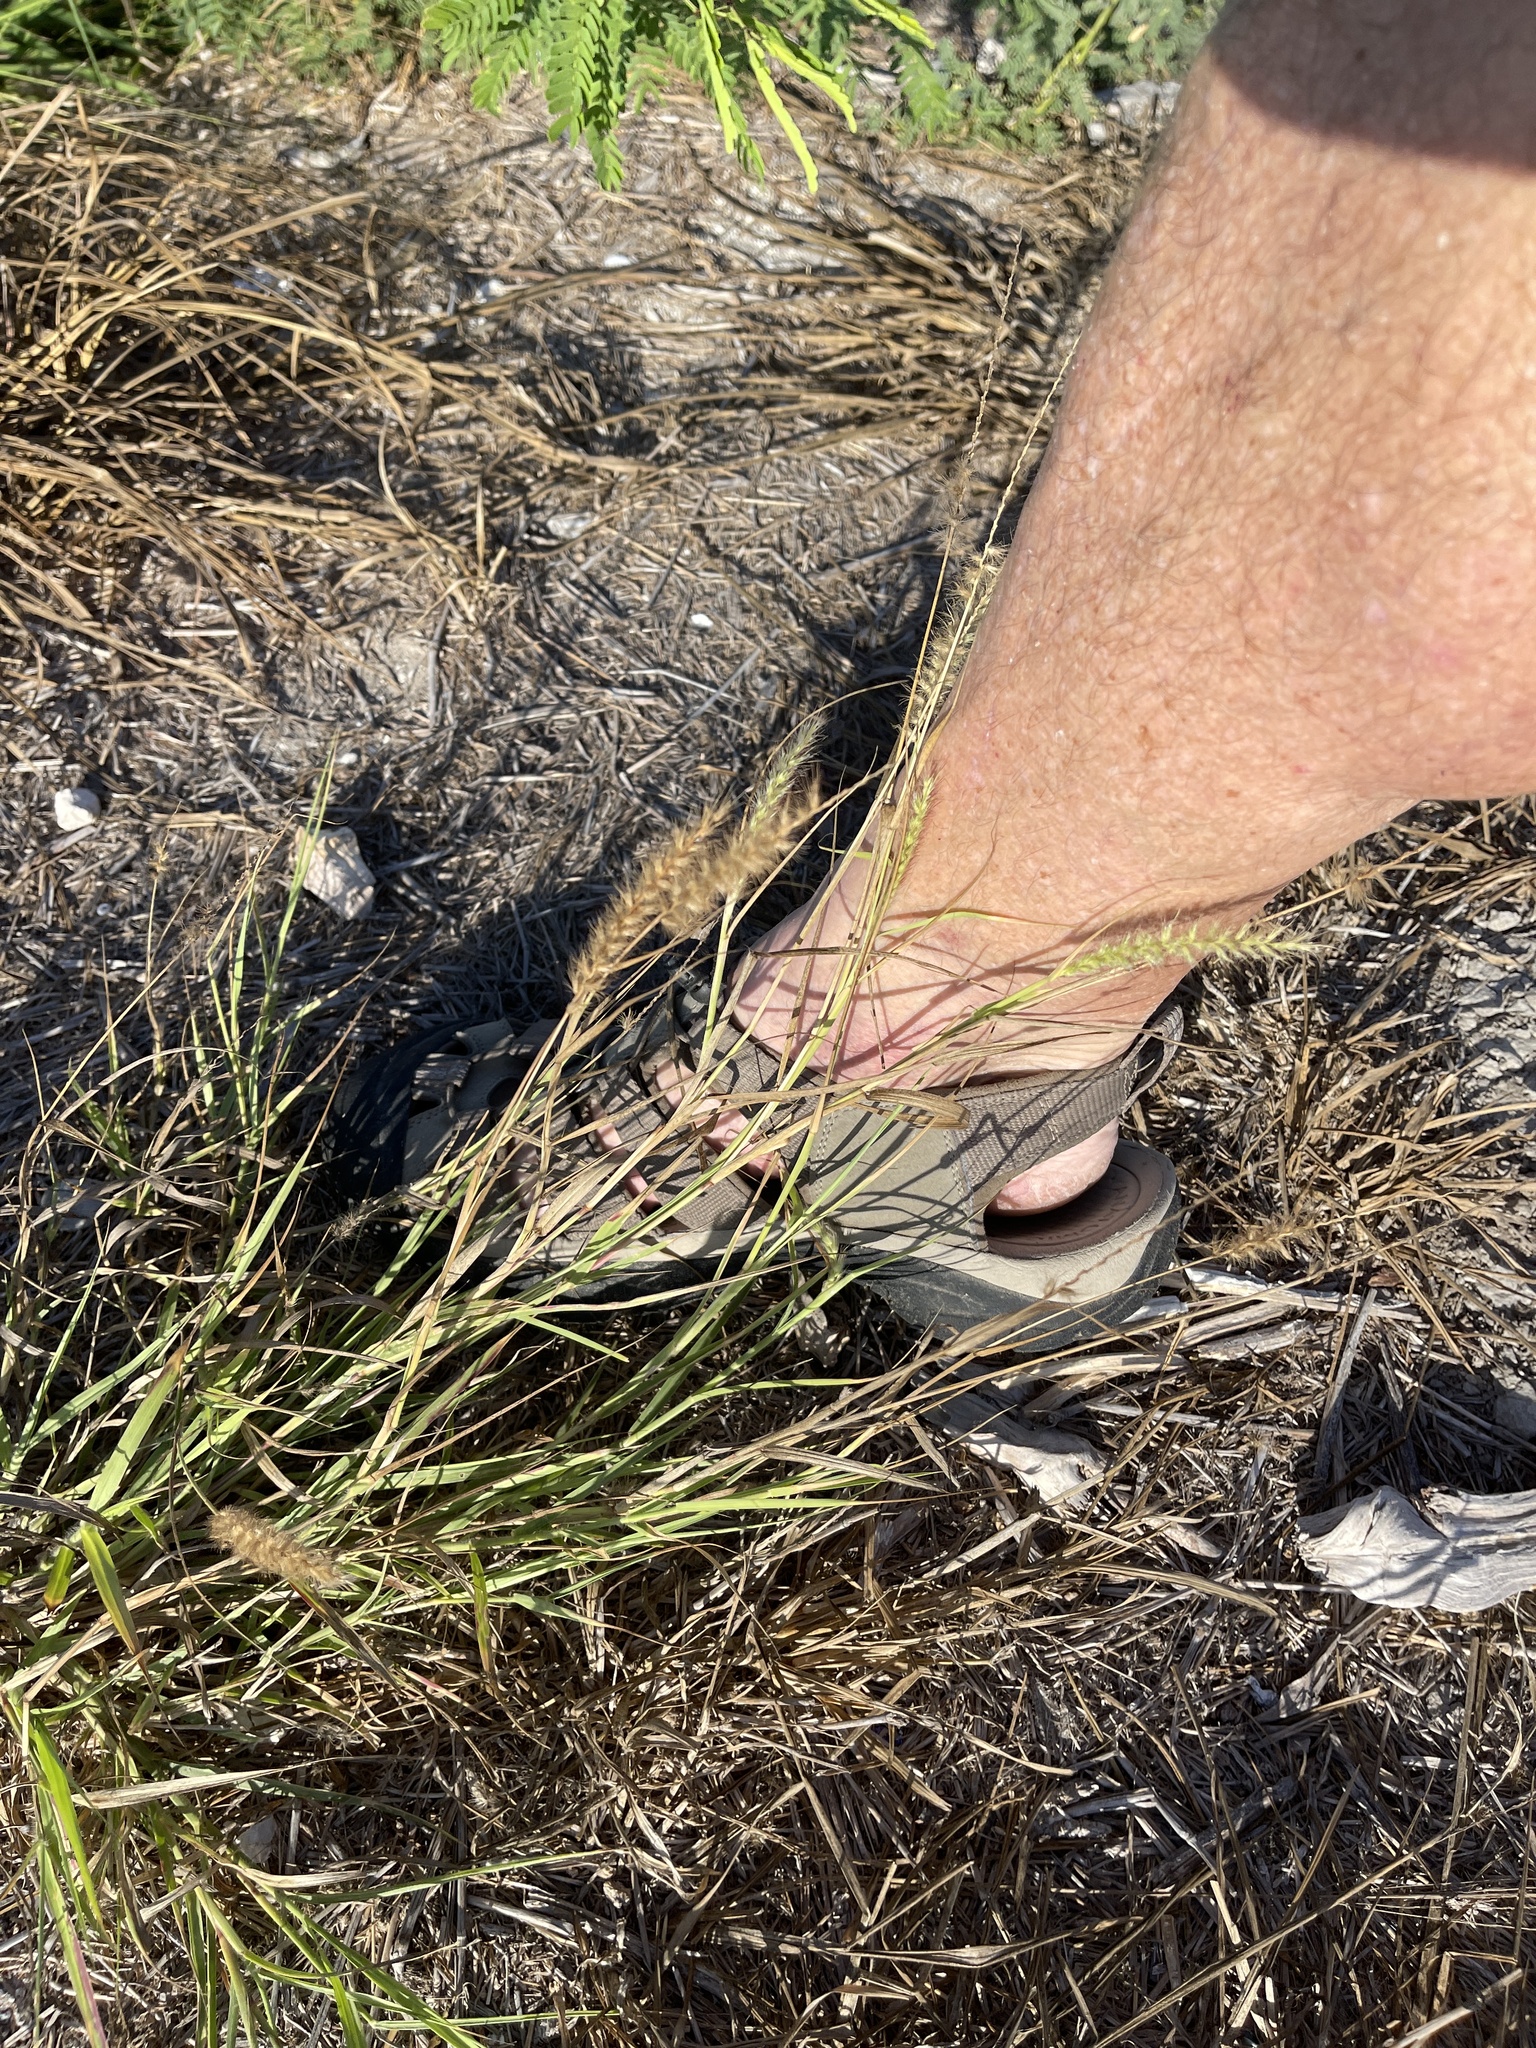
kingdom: Plantae
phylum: Tracheophyta
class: Liliopsida
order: Poales
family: Poaceae
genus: Cenchrus
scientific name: Cenchrus ciliaris
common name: Buffelgrass
